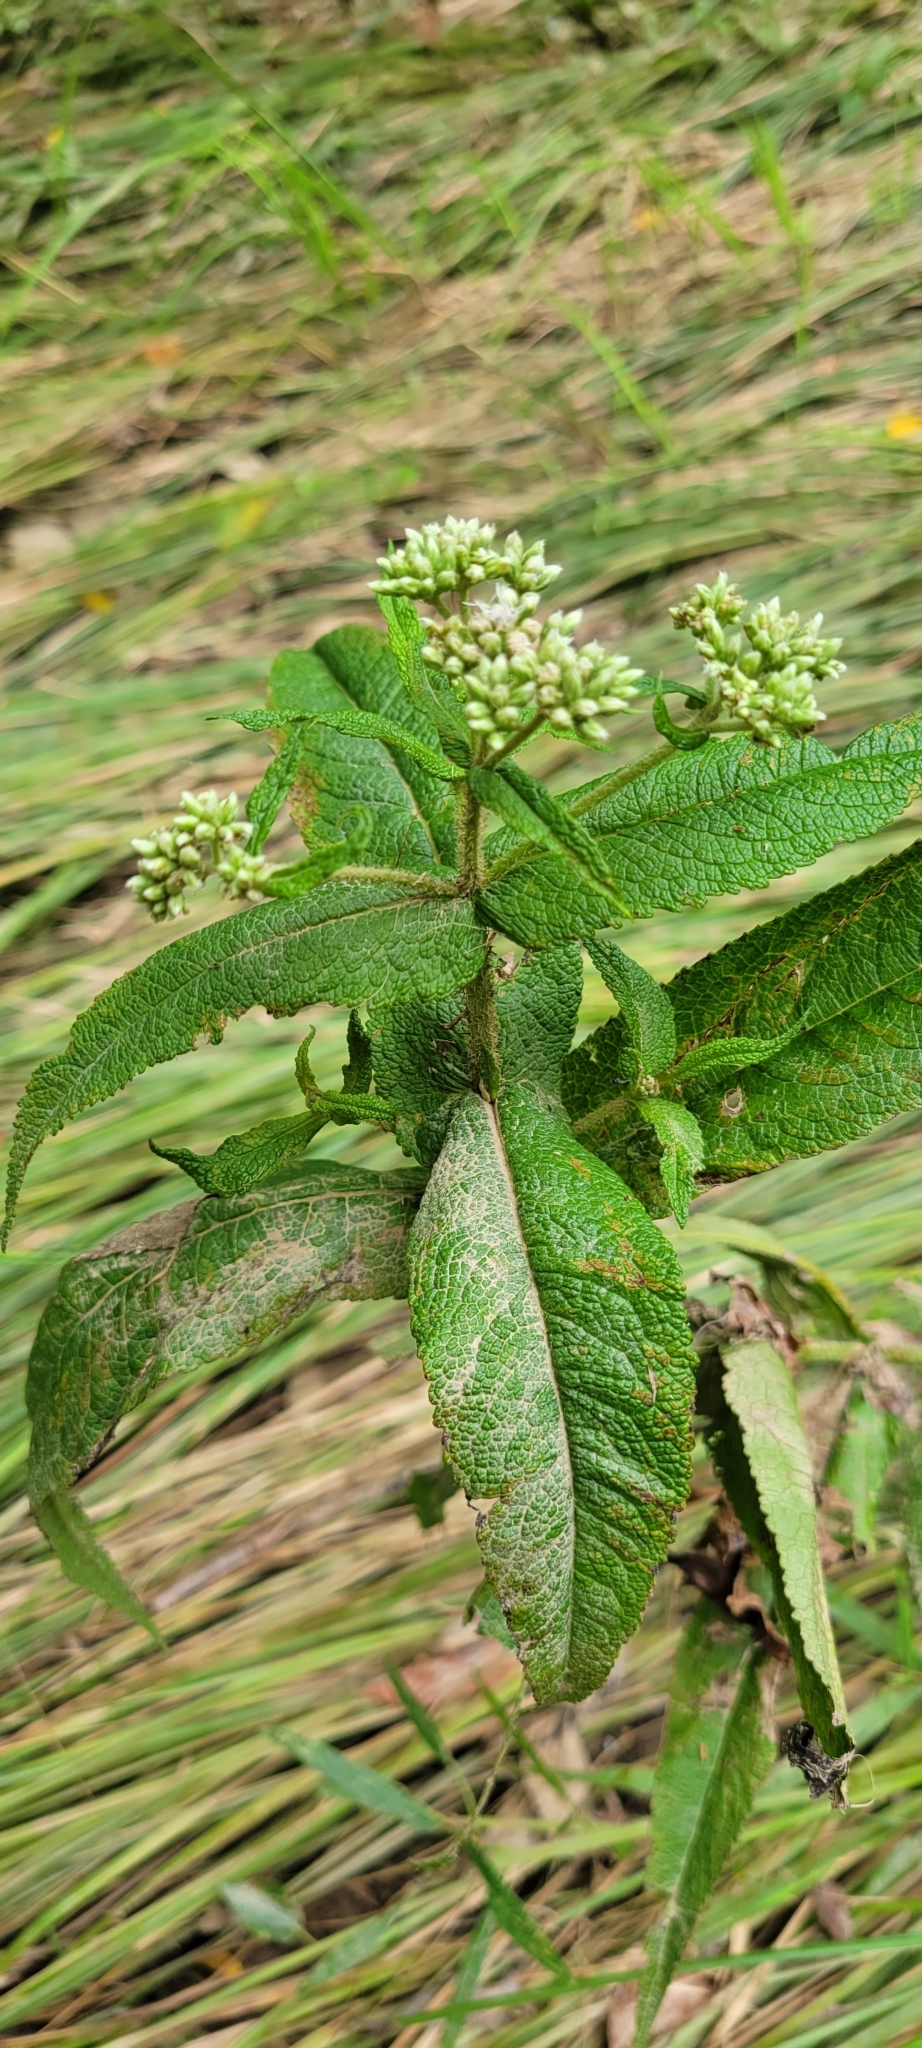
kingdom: Plantae
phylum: Tracheophyta
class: Magnoliopsida
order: Asterales
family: Asteraceae
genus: Eupatorium
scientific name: Eupatorium perfoliatum
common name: Boneset
